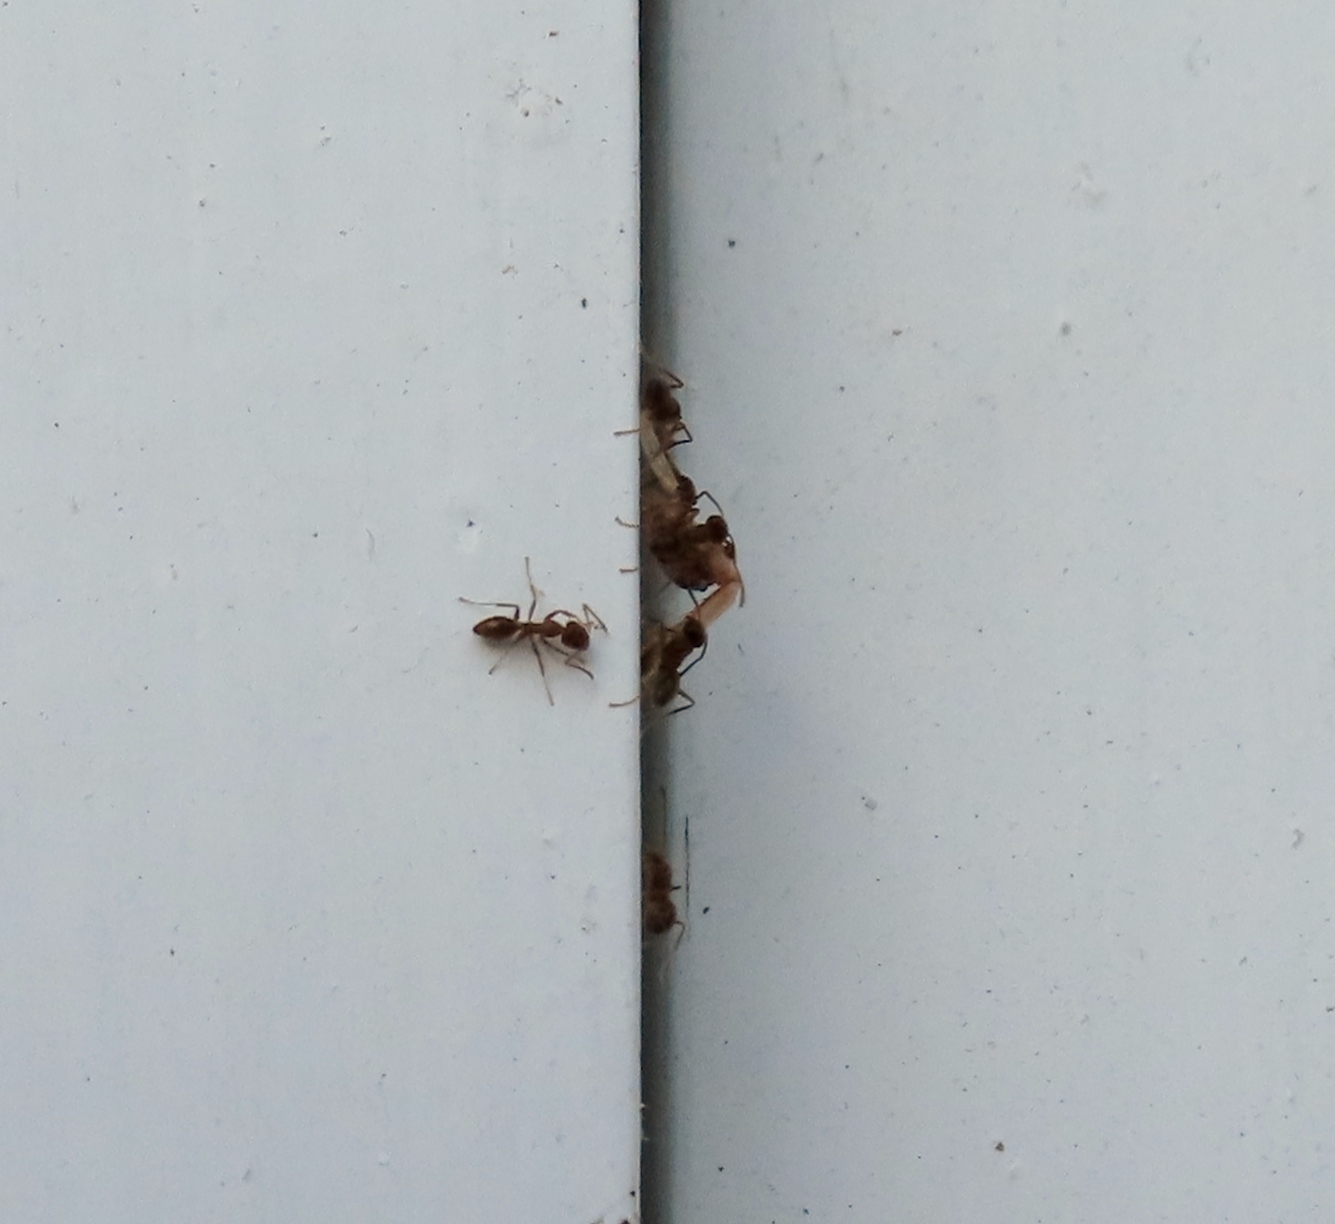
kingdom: Animalia
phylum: Arthropoda
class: Insecta
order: Hymenoptera
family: Formicidae
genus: Linepithema
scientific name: Linepithema humile
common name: Argentine ant
